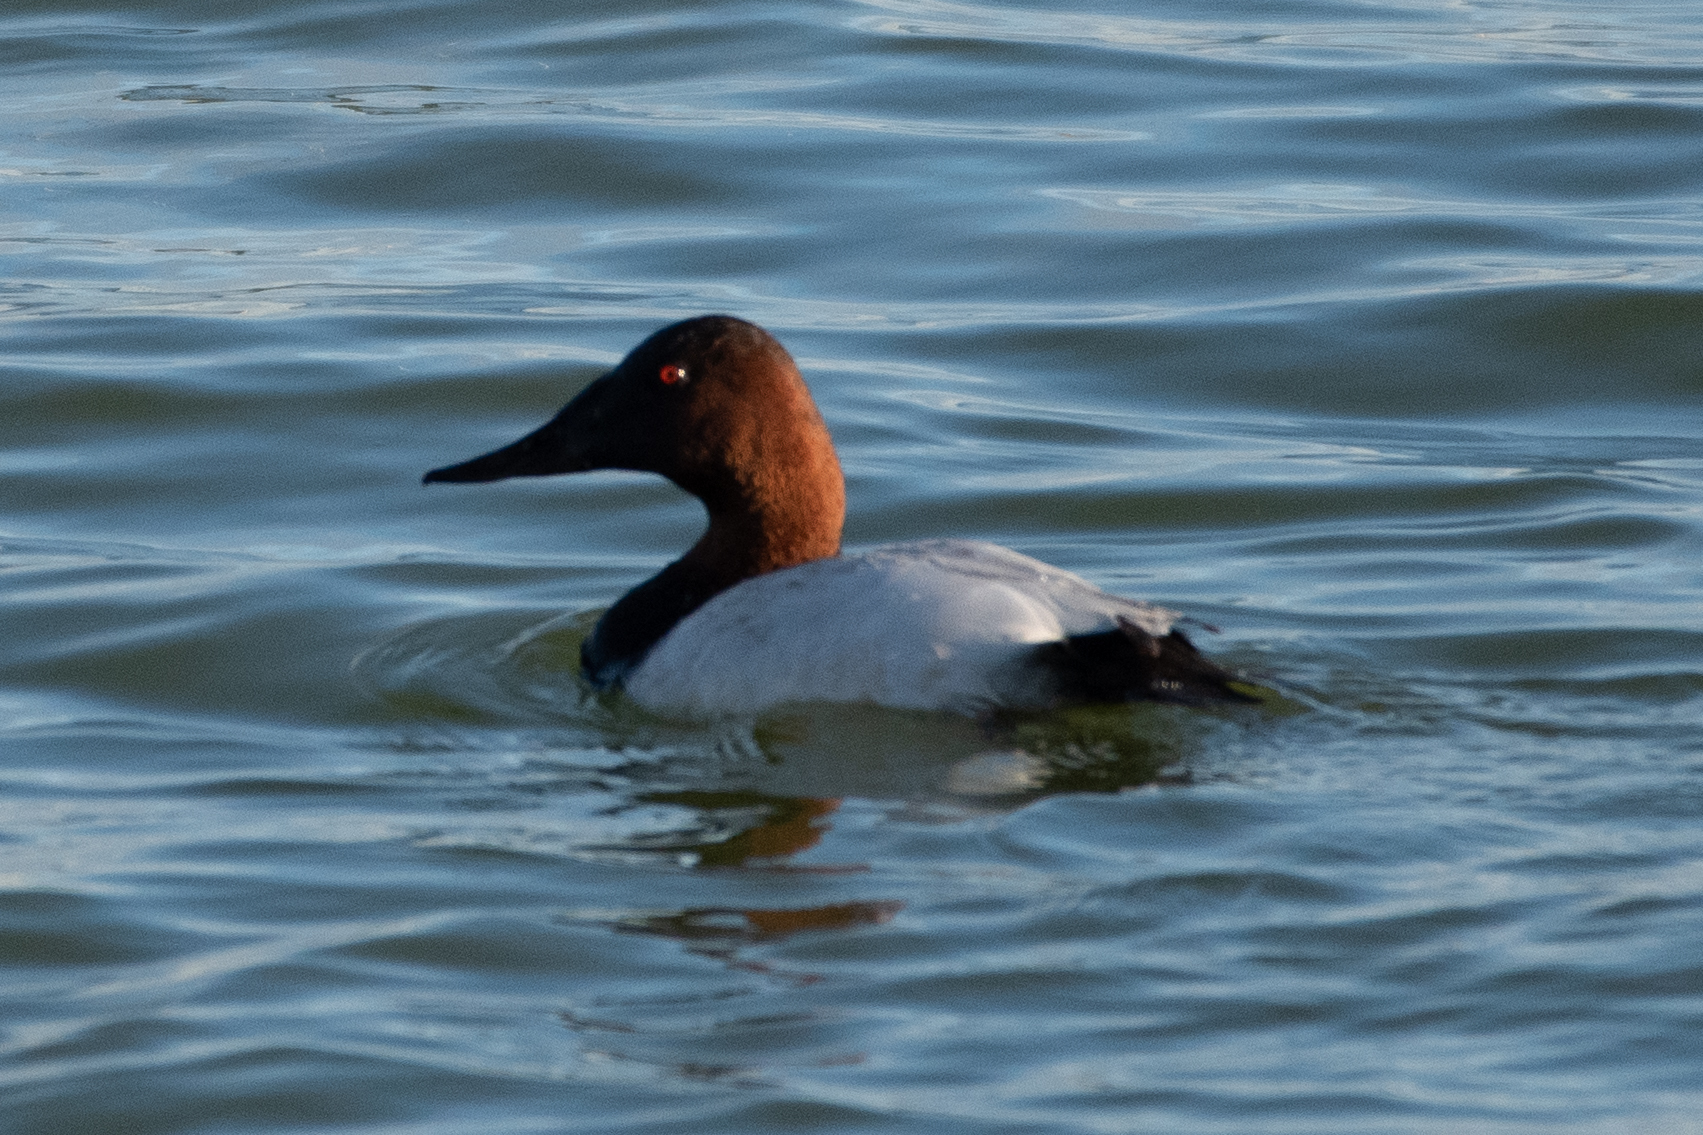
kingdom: Animalia
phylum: Chordata
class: Aves
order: Anseriformes
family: Anatidae
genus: Aythya
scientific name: Aythya valisineria
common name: Canvasback
